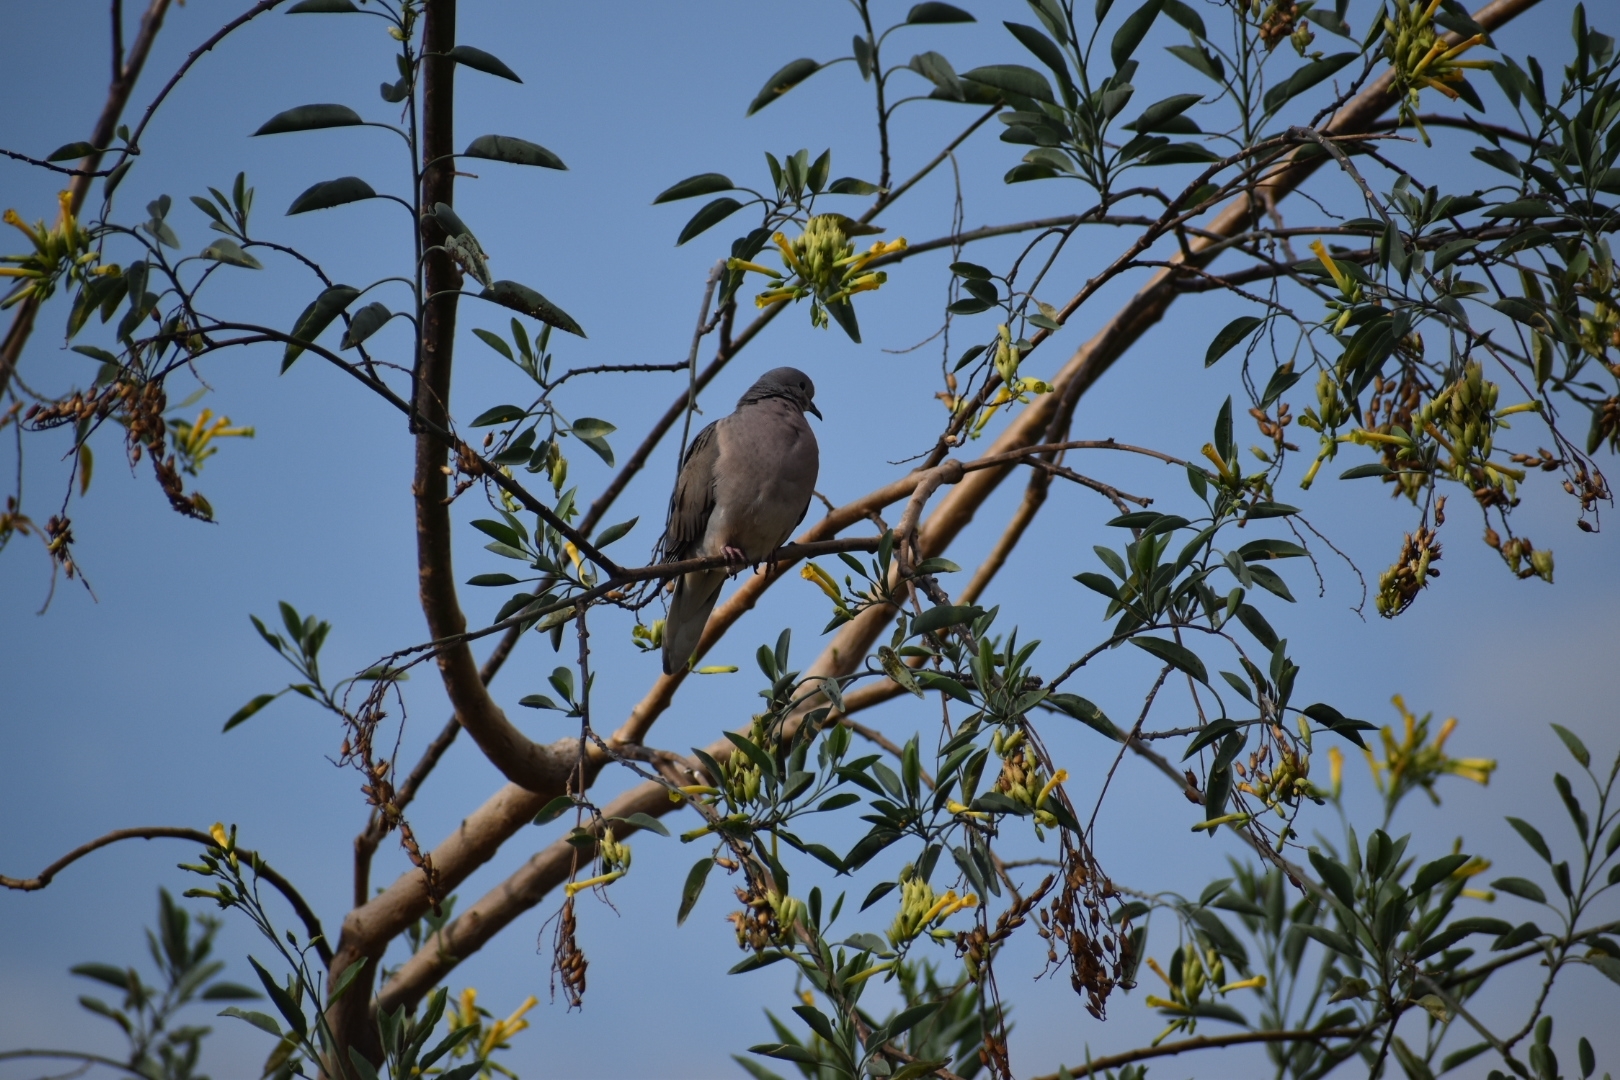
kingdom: Animalia
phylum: Chordata
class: Aves
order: Columbiformes
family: Columbidae
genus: Zenaida
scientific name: Zenaida auriculata
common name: Eared dove
